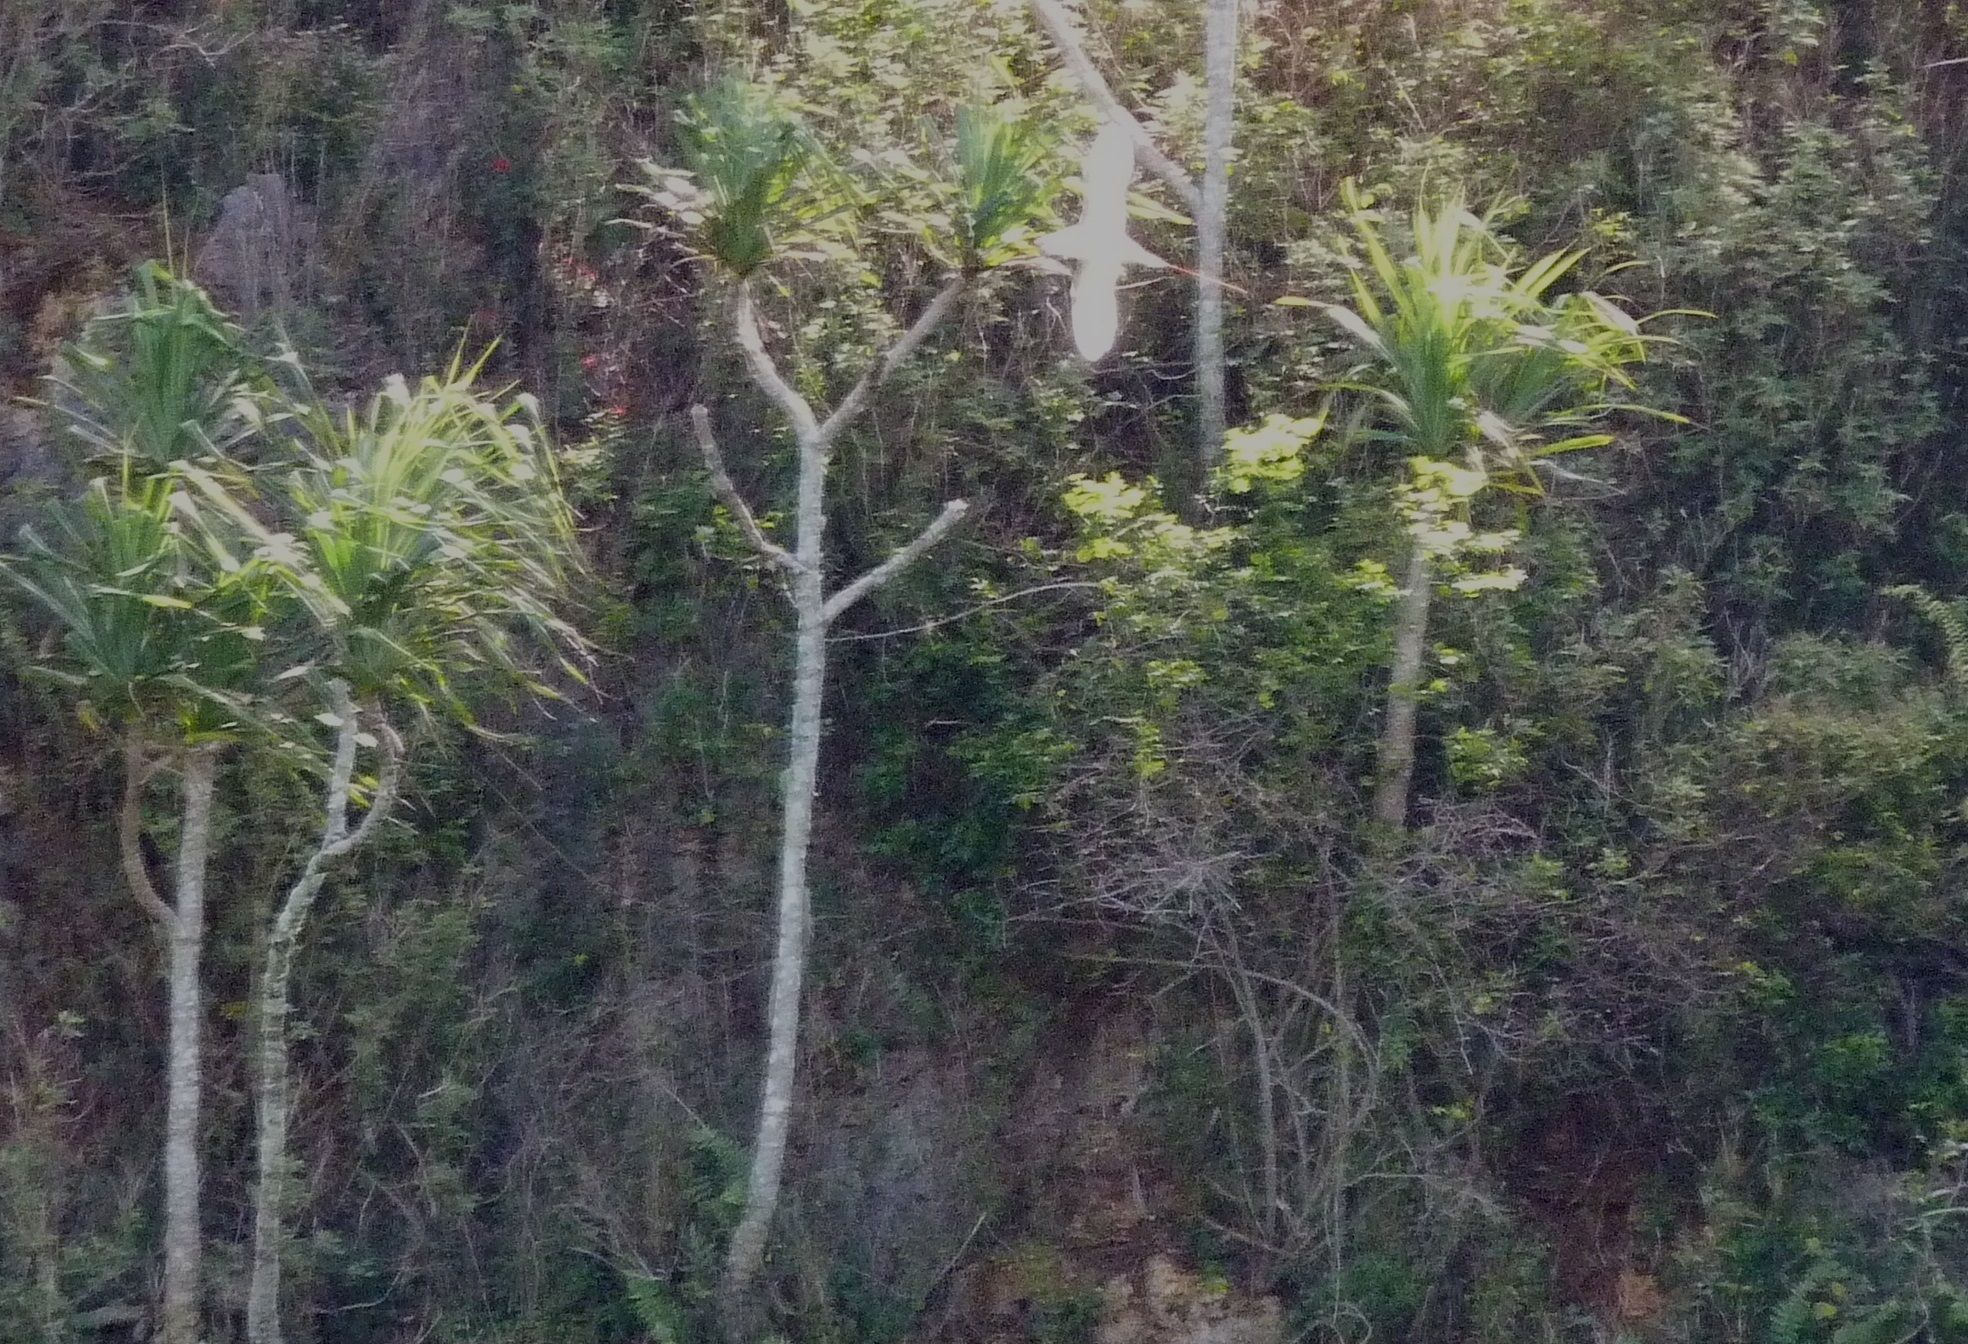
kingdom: Animalia
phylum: Chordata
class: Aves
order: Phaethontiformes
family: Phaethontidae
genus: Phaethon
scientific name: Phaethon rubricauda
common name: Red-tailed tropicbird
